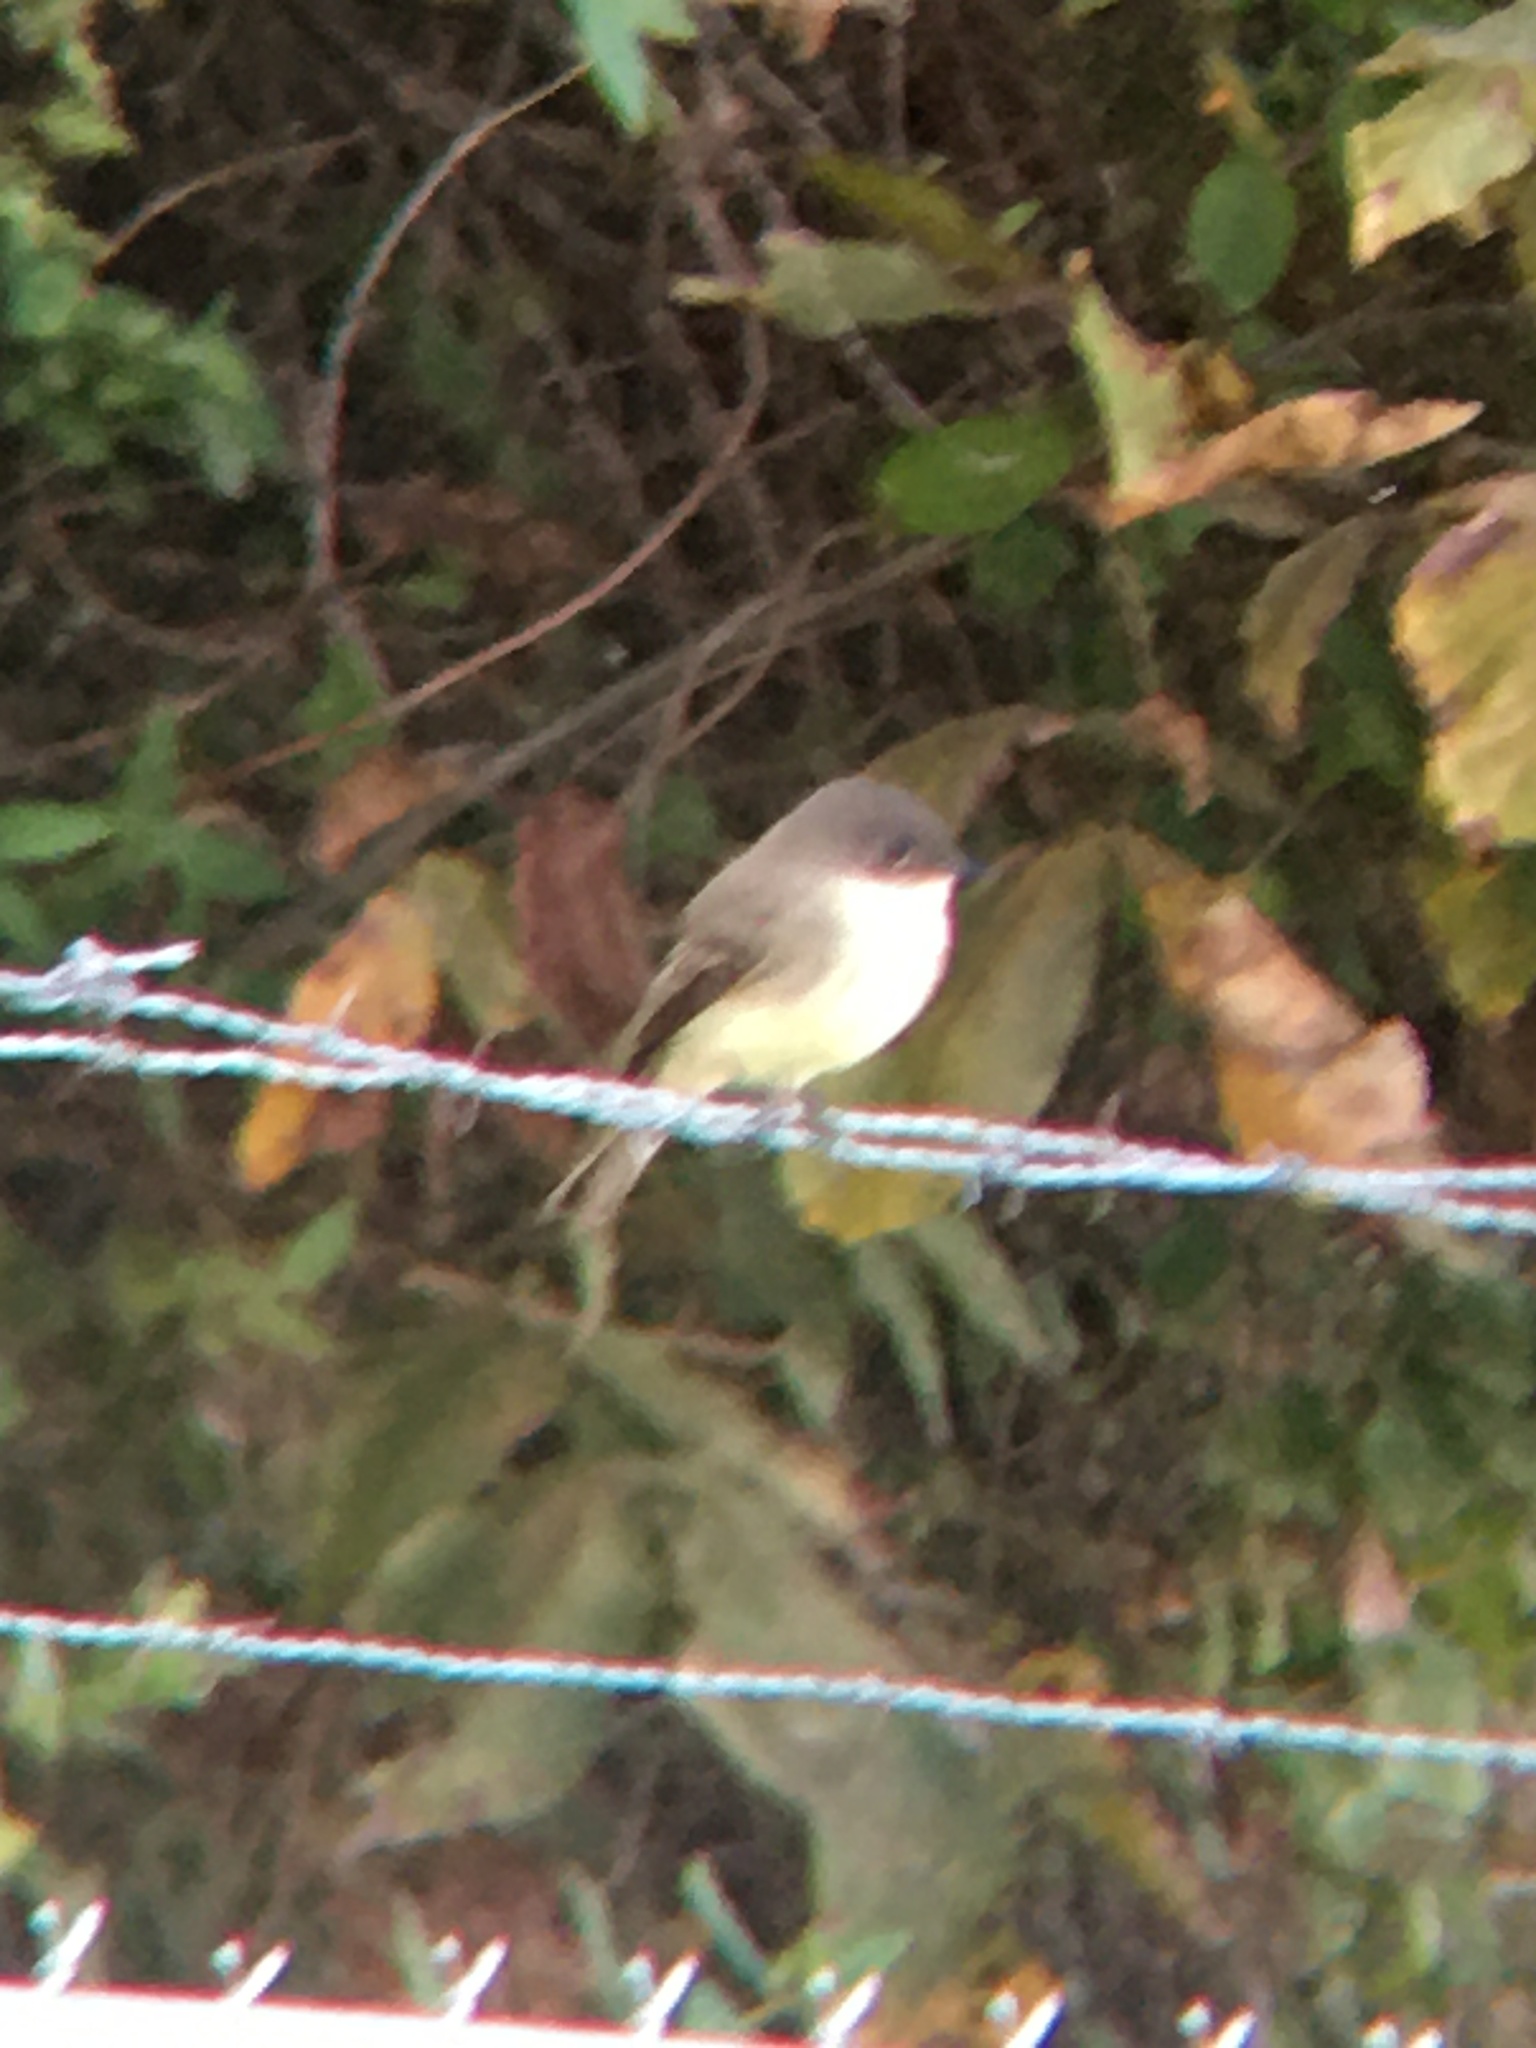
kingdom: Animalia
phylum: Chordata
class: Aves
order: Passeriformes
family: Tyrannidae
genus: Sayornis
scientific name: Sayornis phoebe
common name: Eastern phoebe
